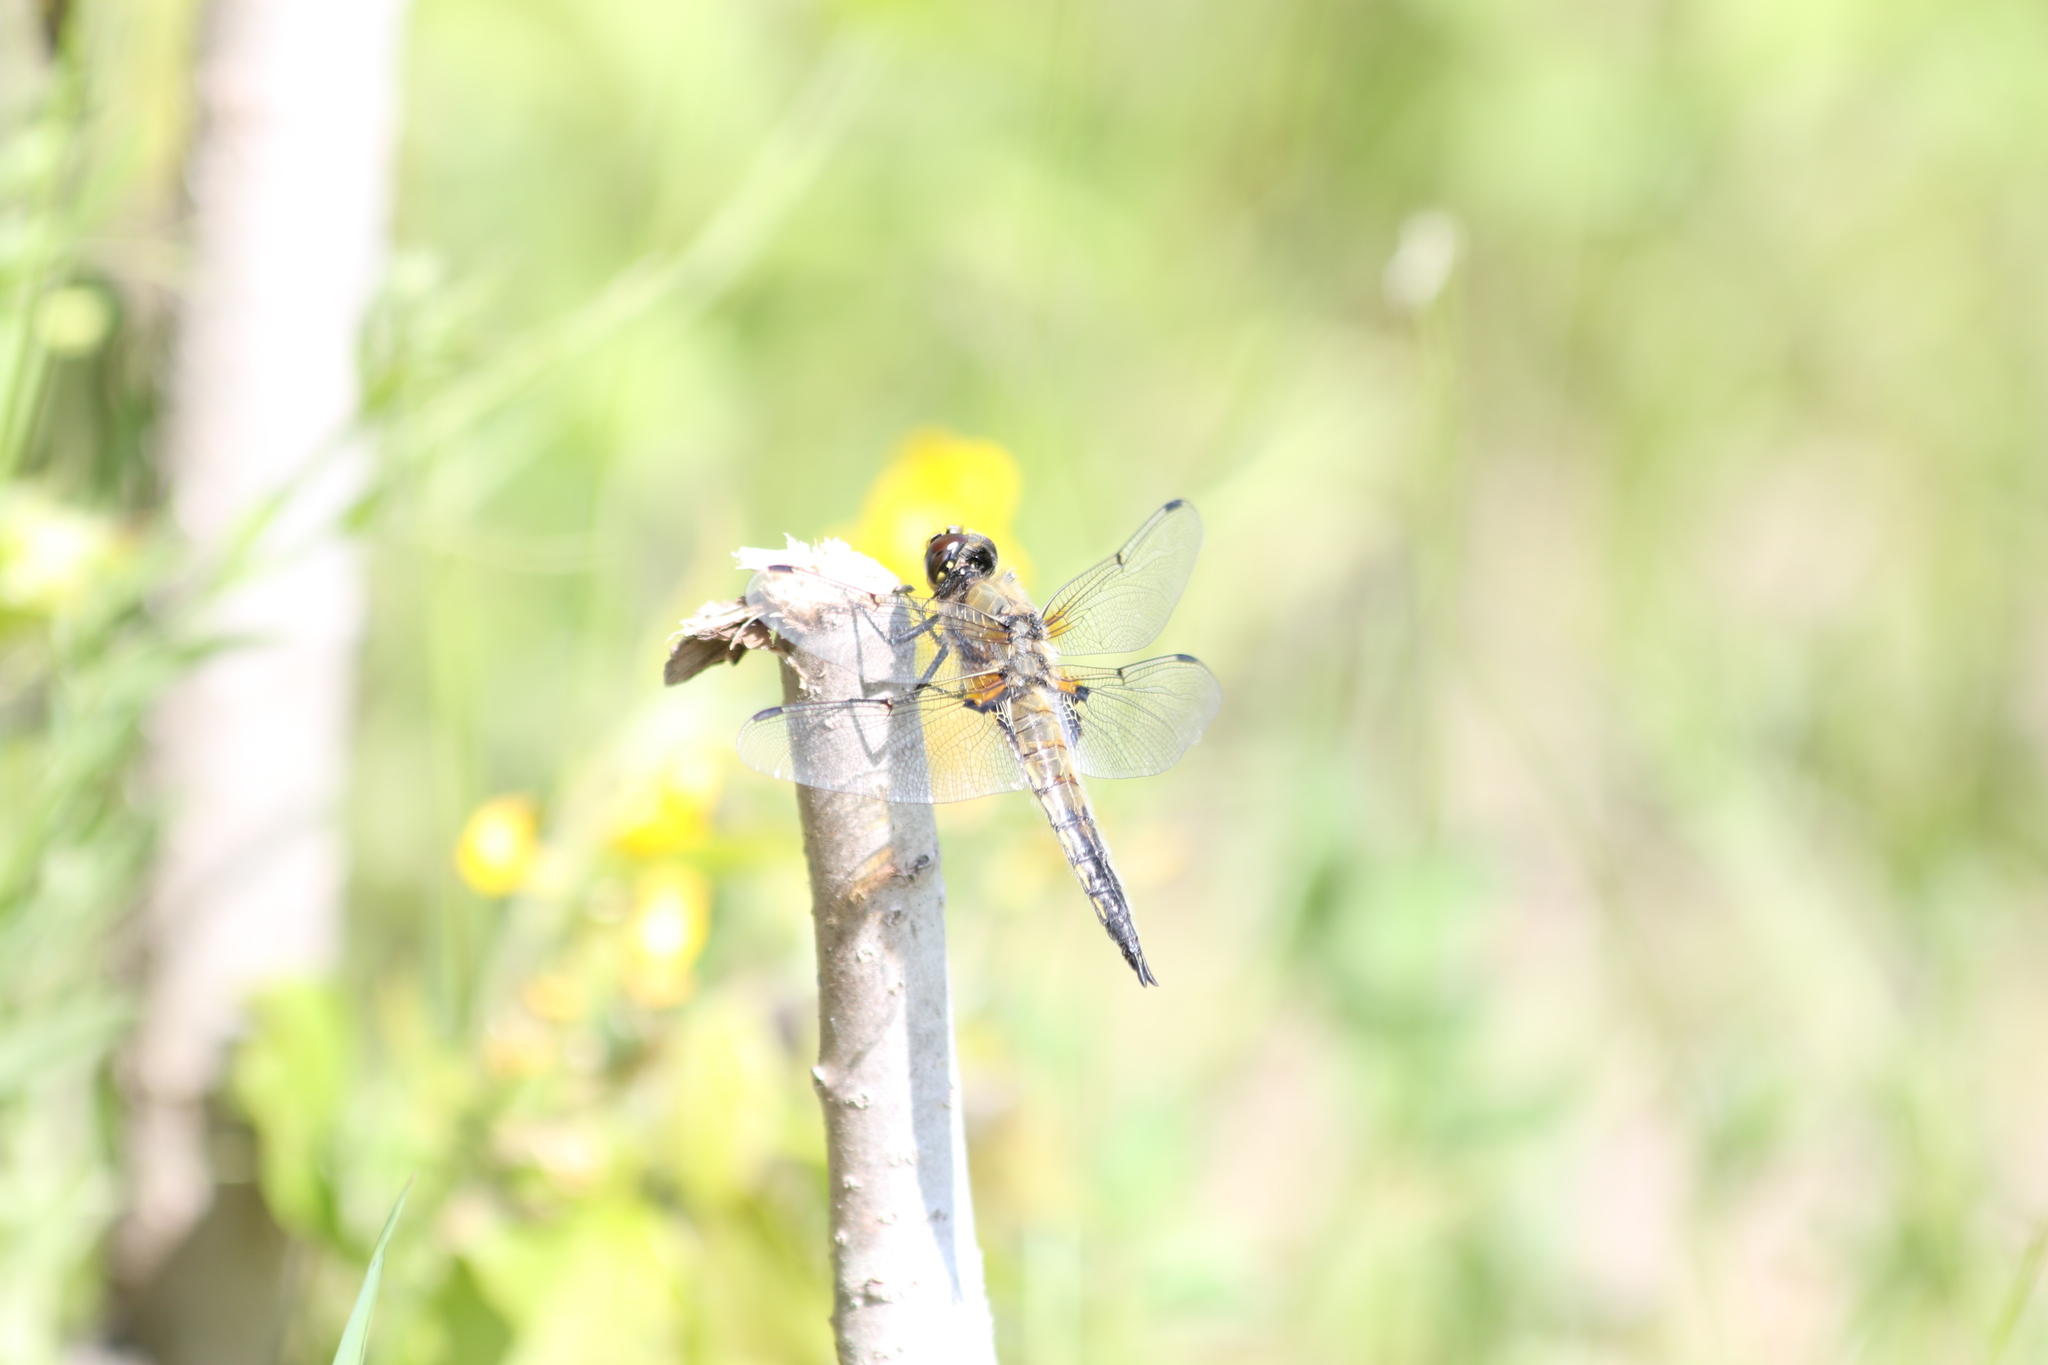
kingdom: Animalia
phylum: Arthropoda
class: Insecta
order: Odonata
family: Libellulidae
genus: Libellula
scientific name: Libellula quadrimaculata
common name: Four-spotted chaser
